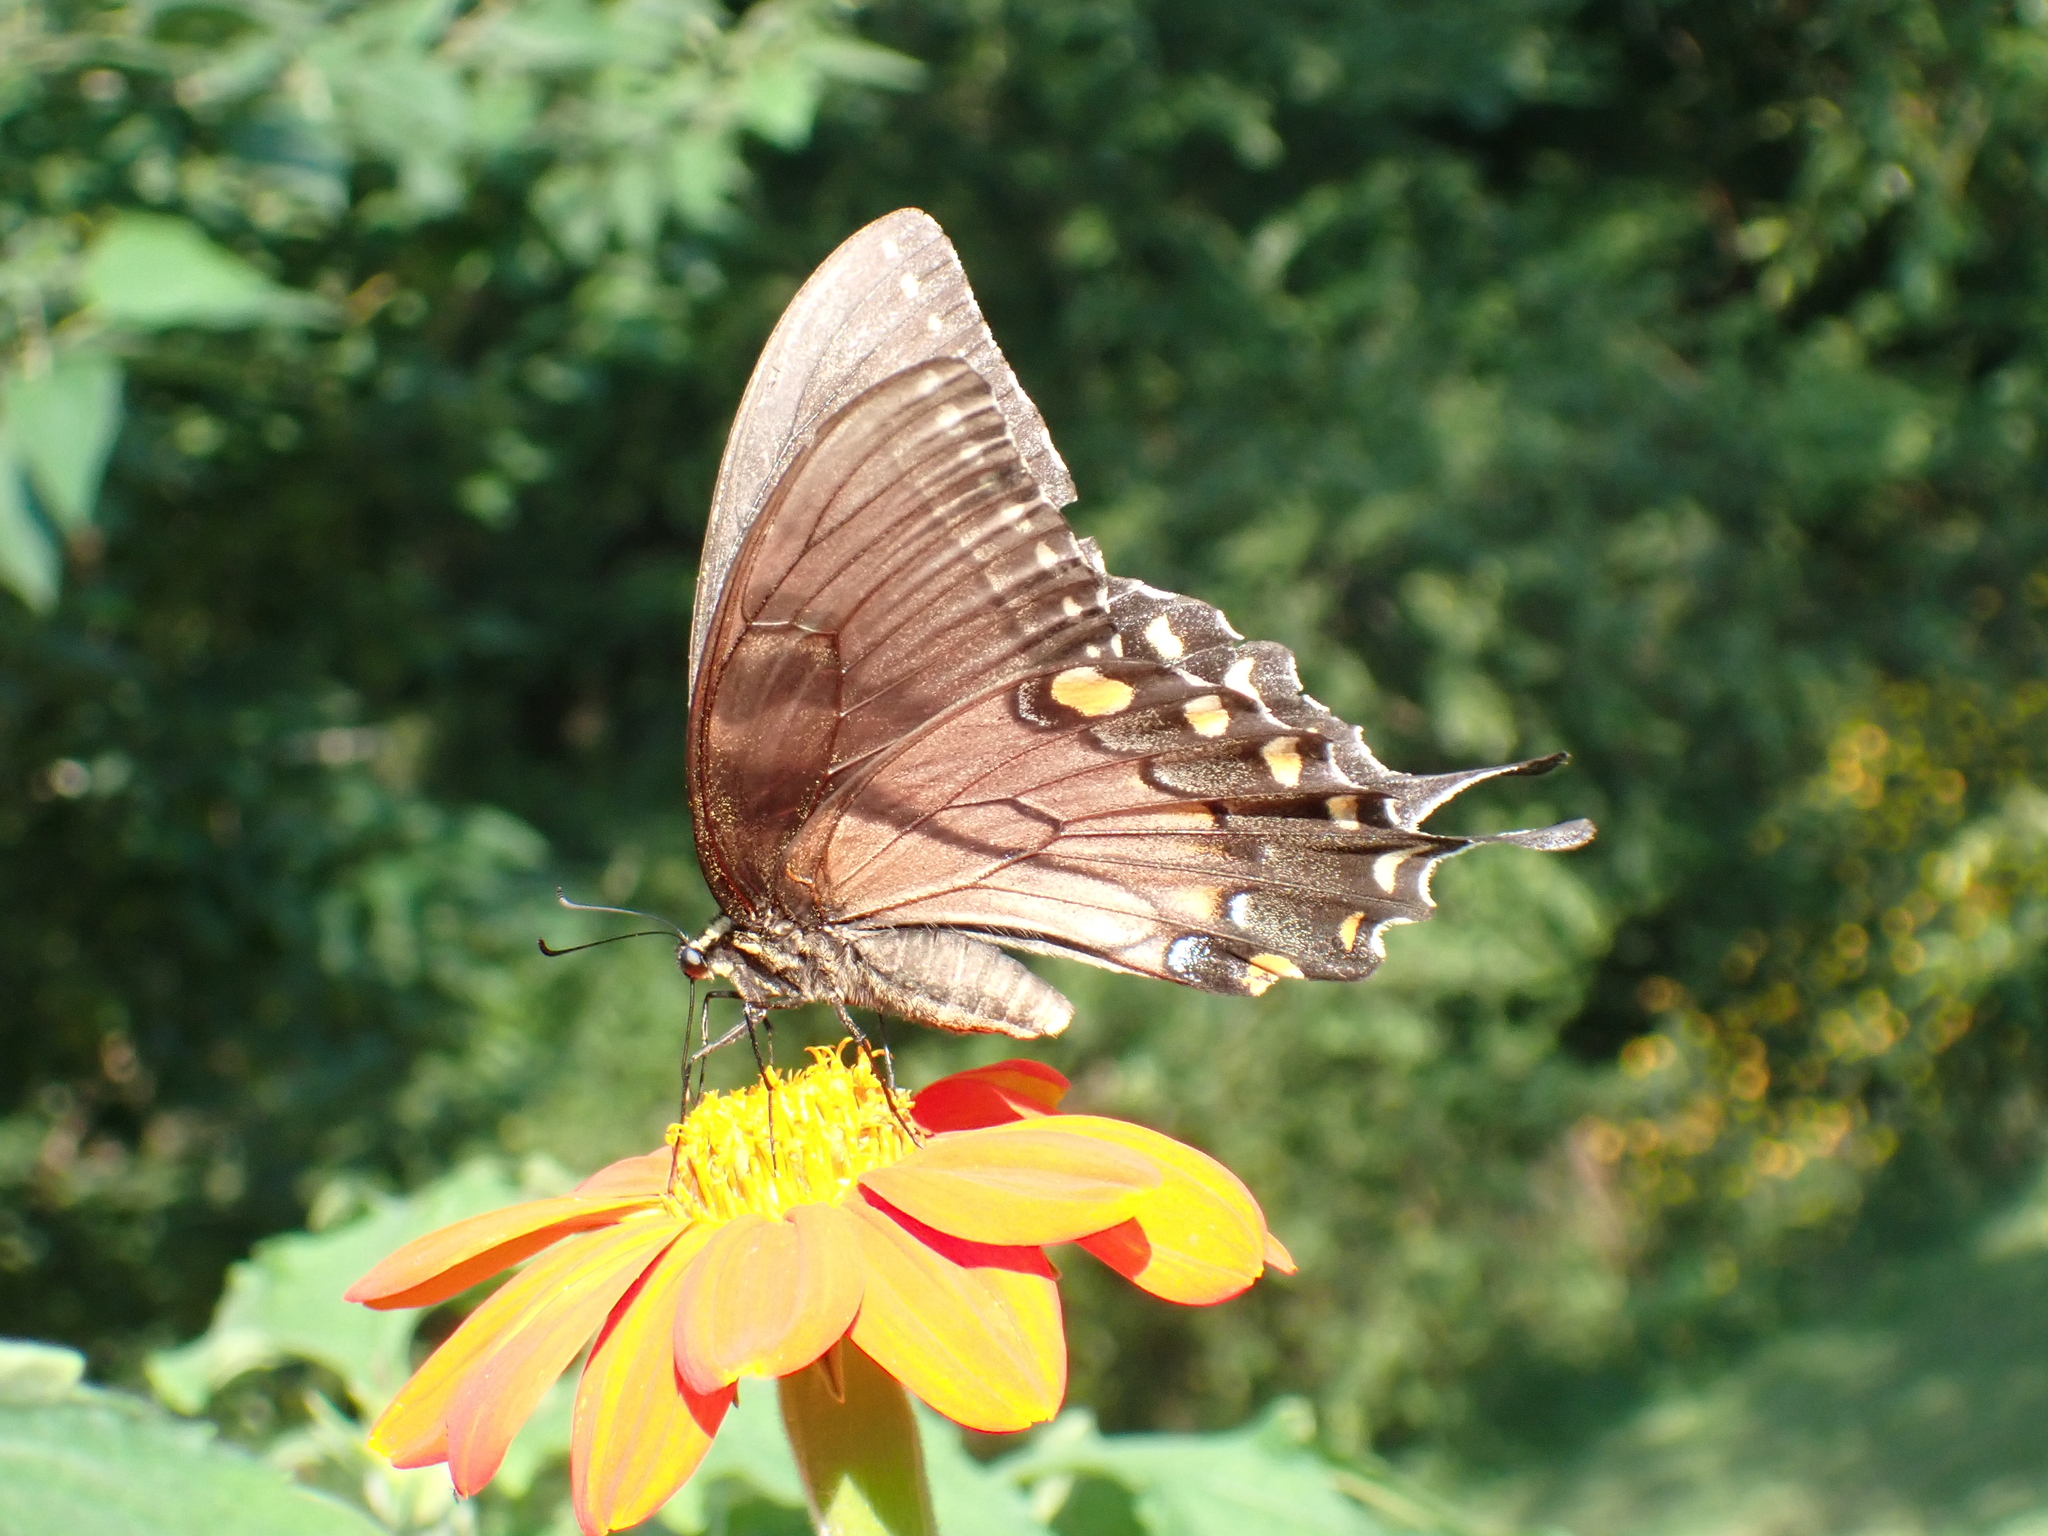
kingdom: Animalia
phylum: Arthropoda
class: Insecta
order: Lepidoptera
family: Papilionidae
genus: Papilio
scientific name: Papilio glaucus
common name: Tiger swallowtail
